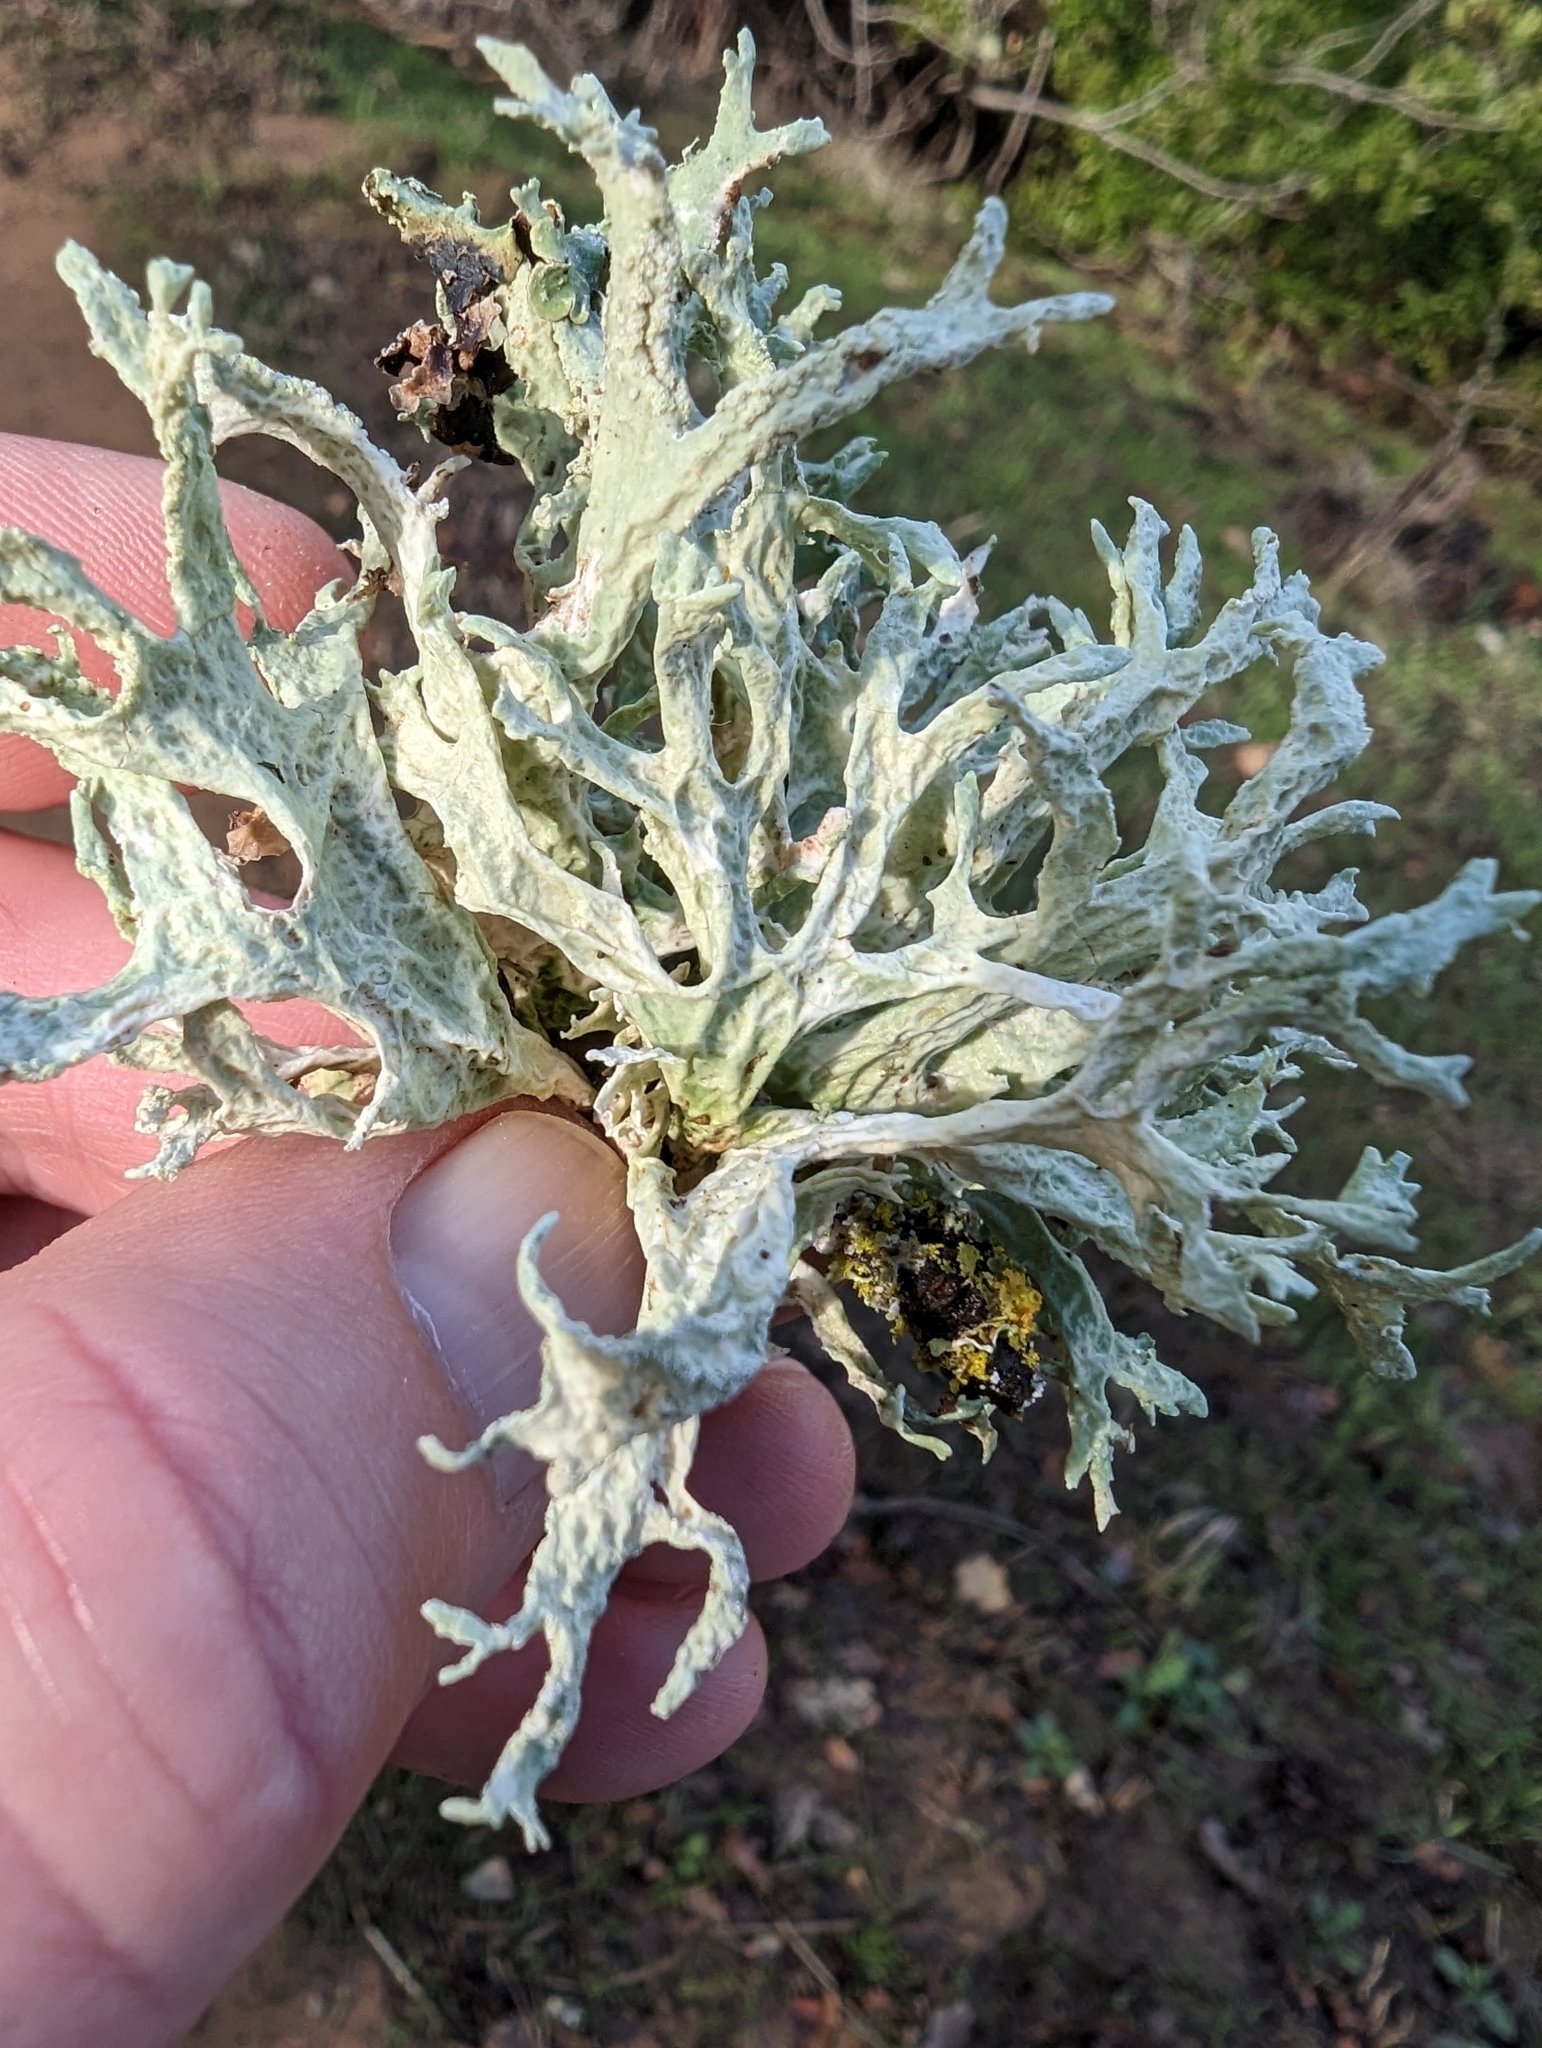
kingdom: Fungi
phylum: Ascomycota
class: Lecanoromycetes
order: Lecanorales
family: Parmeliaceae
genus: Evernia
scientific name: Evernia prunastri
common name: Oak moss
